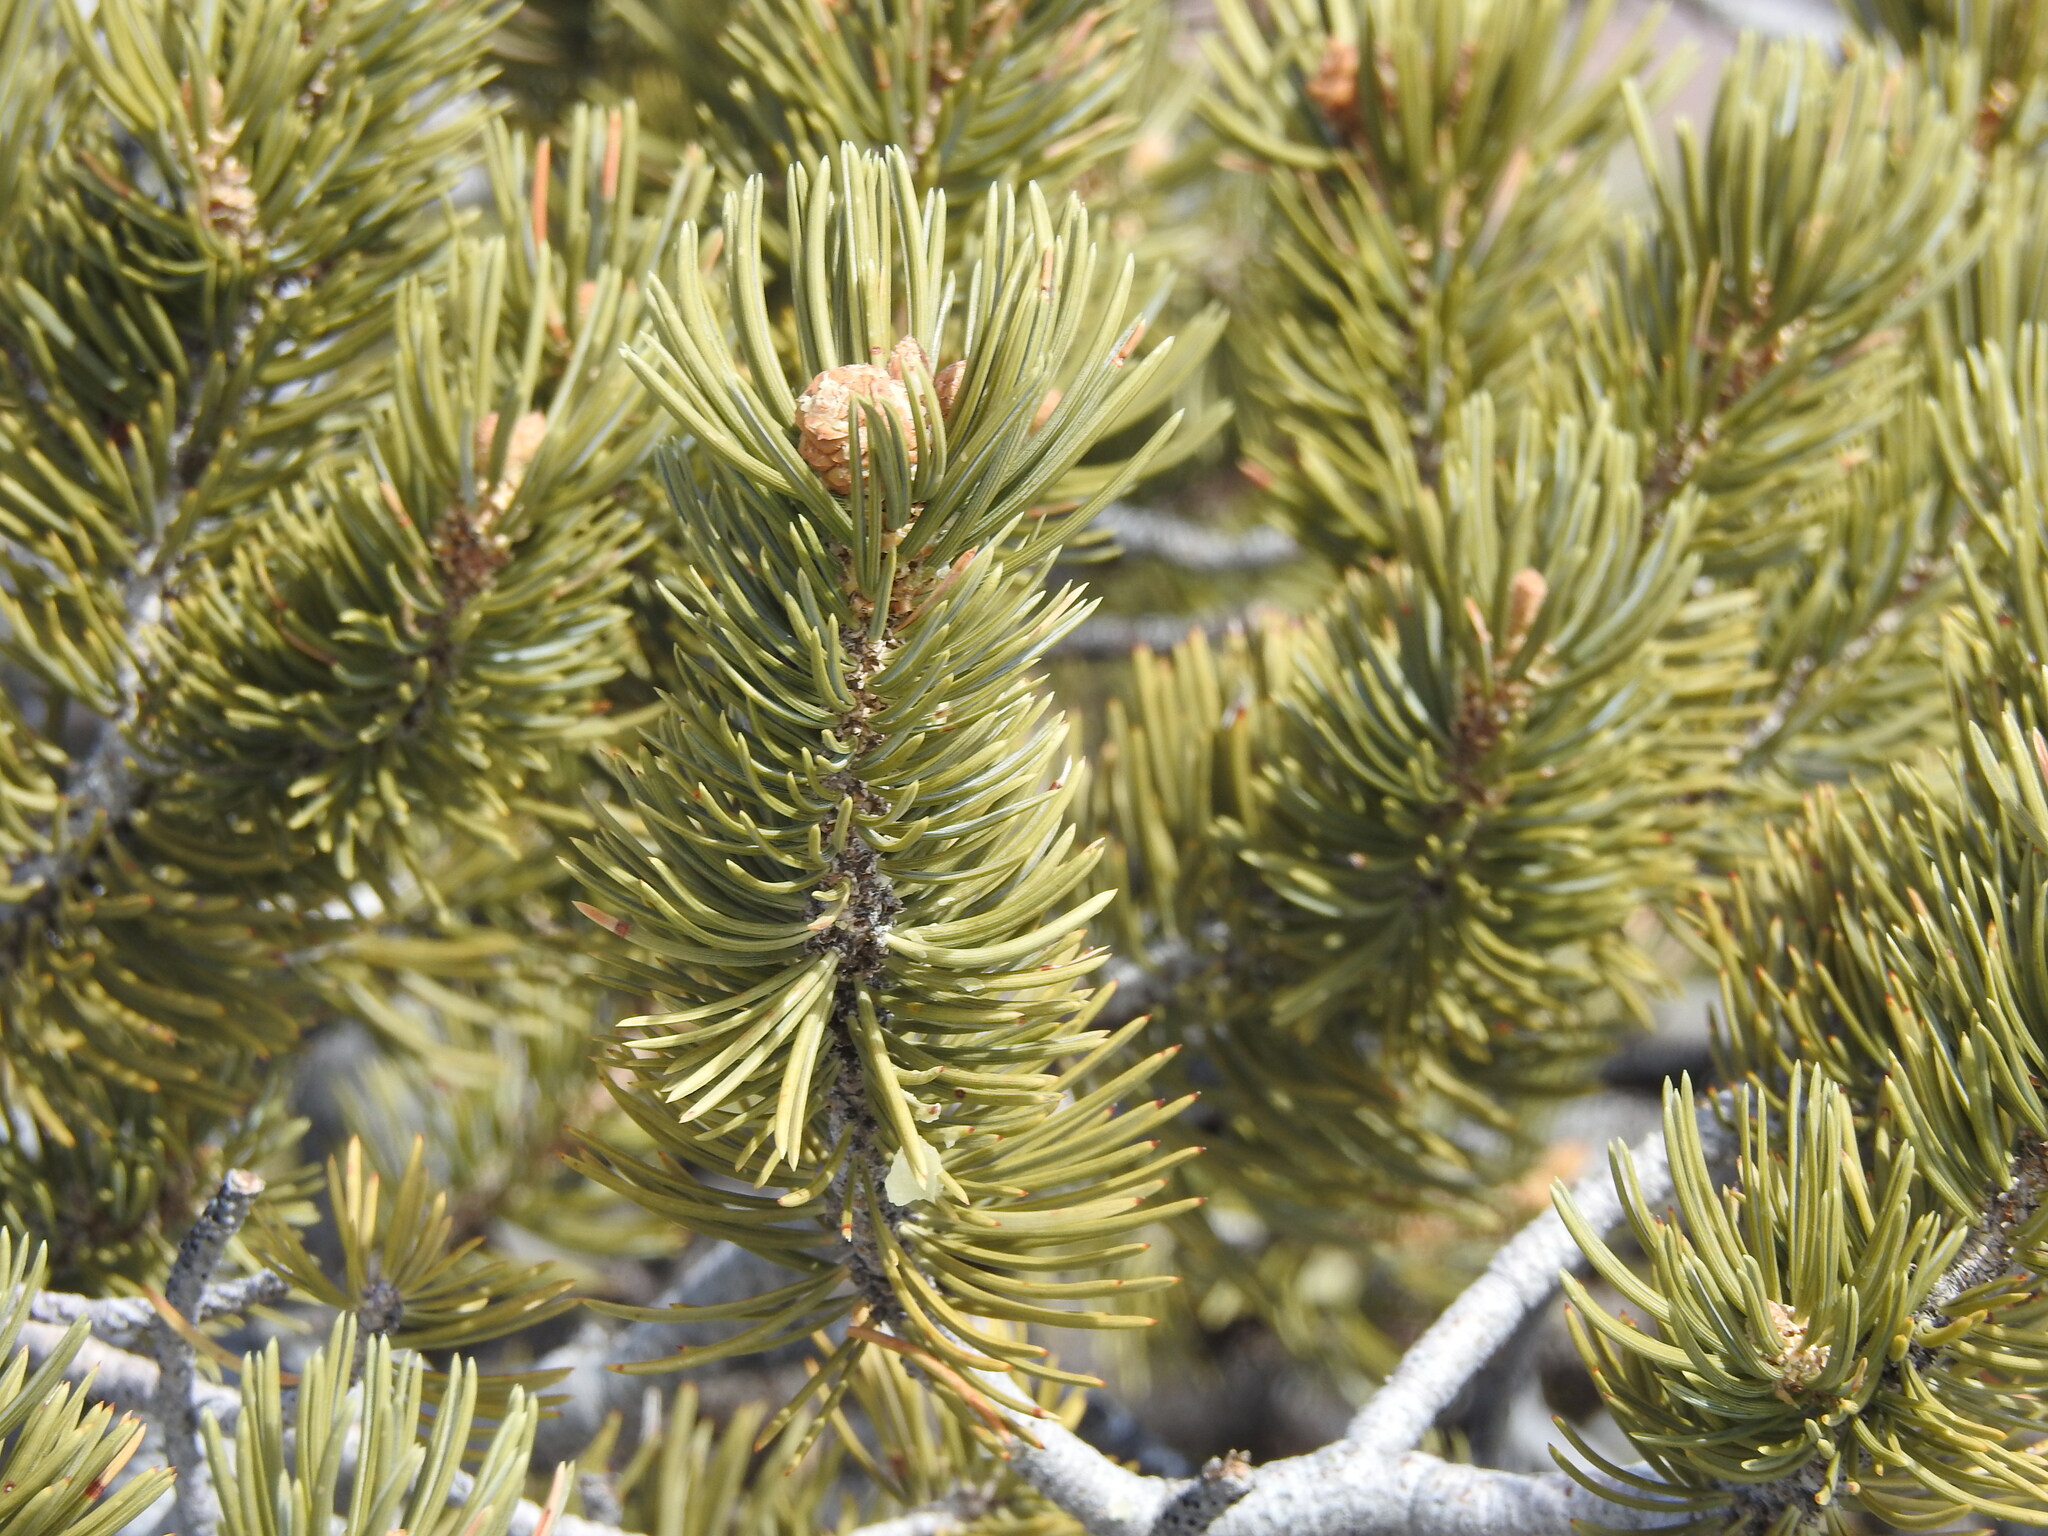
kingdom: Plantae
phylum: Tracheophyta
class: Pinopsida
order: Pinales
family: Pinaceae
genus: Pinus
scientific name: Pinus edulis
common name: Colorado pinyon
